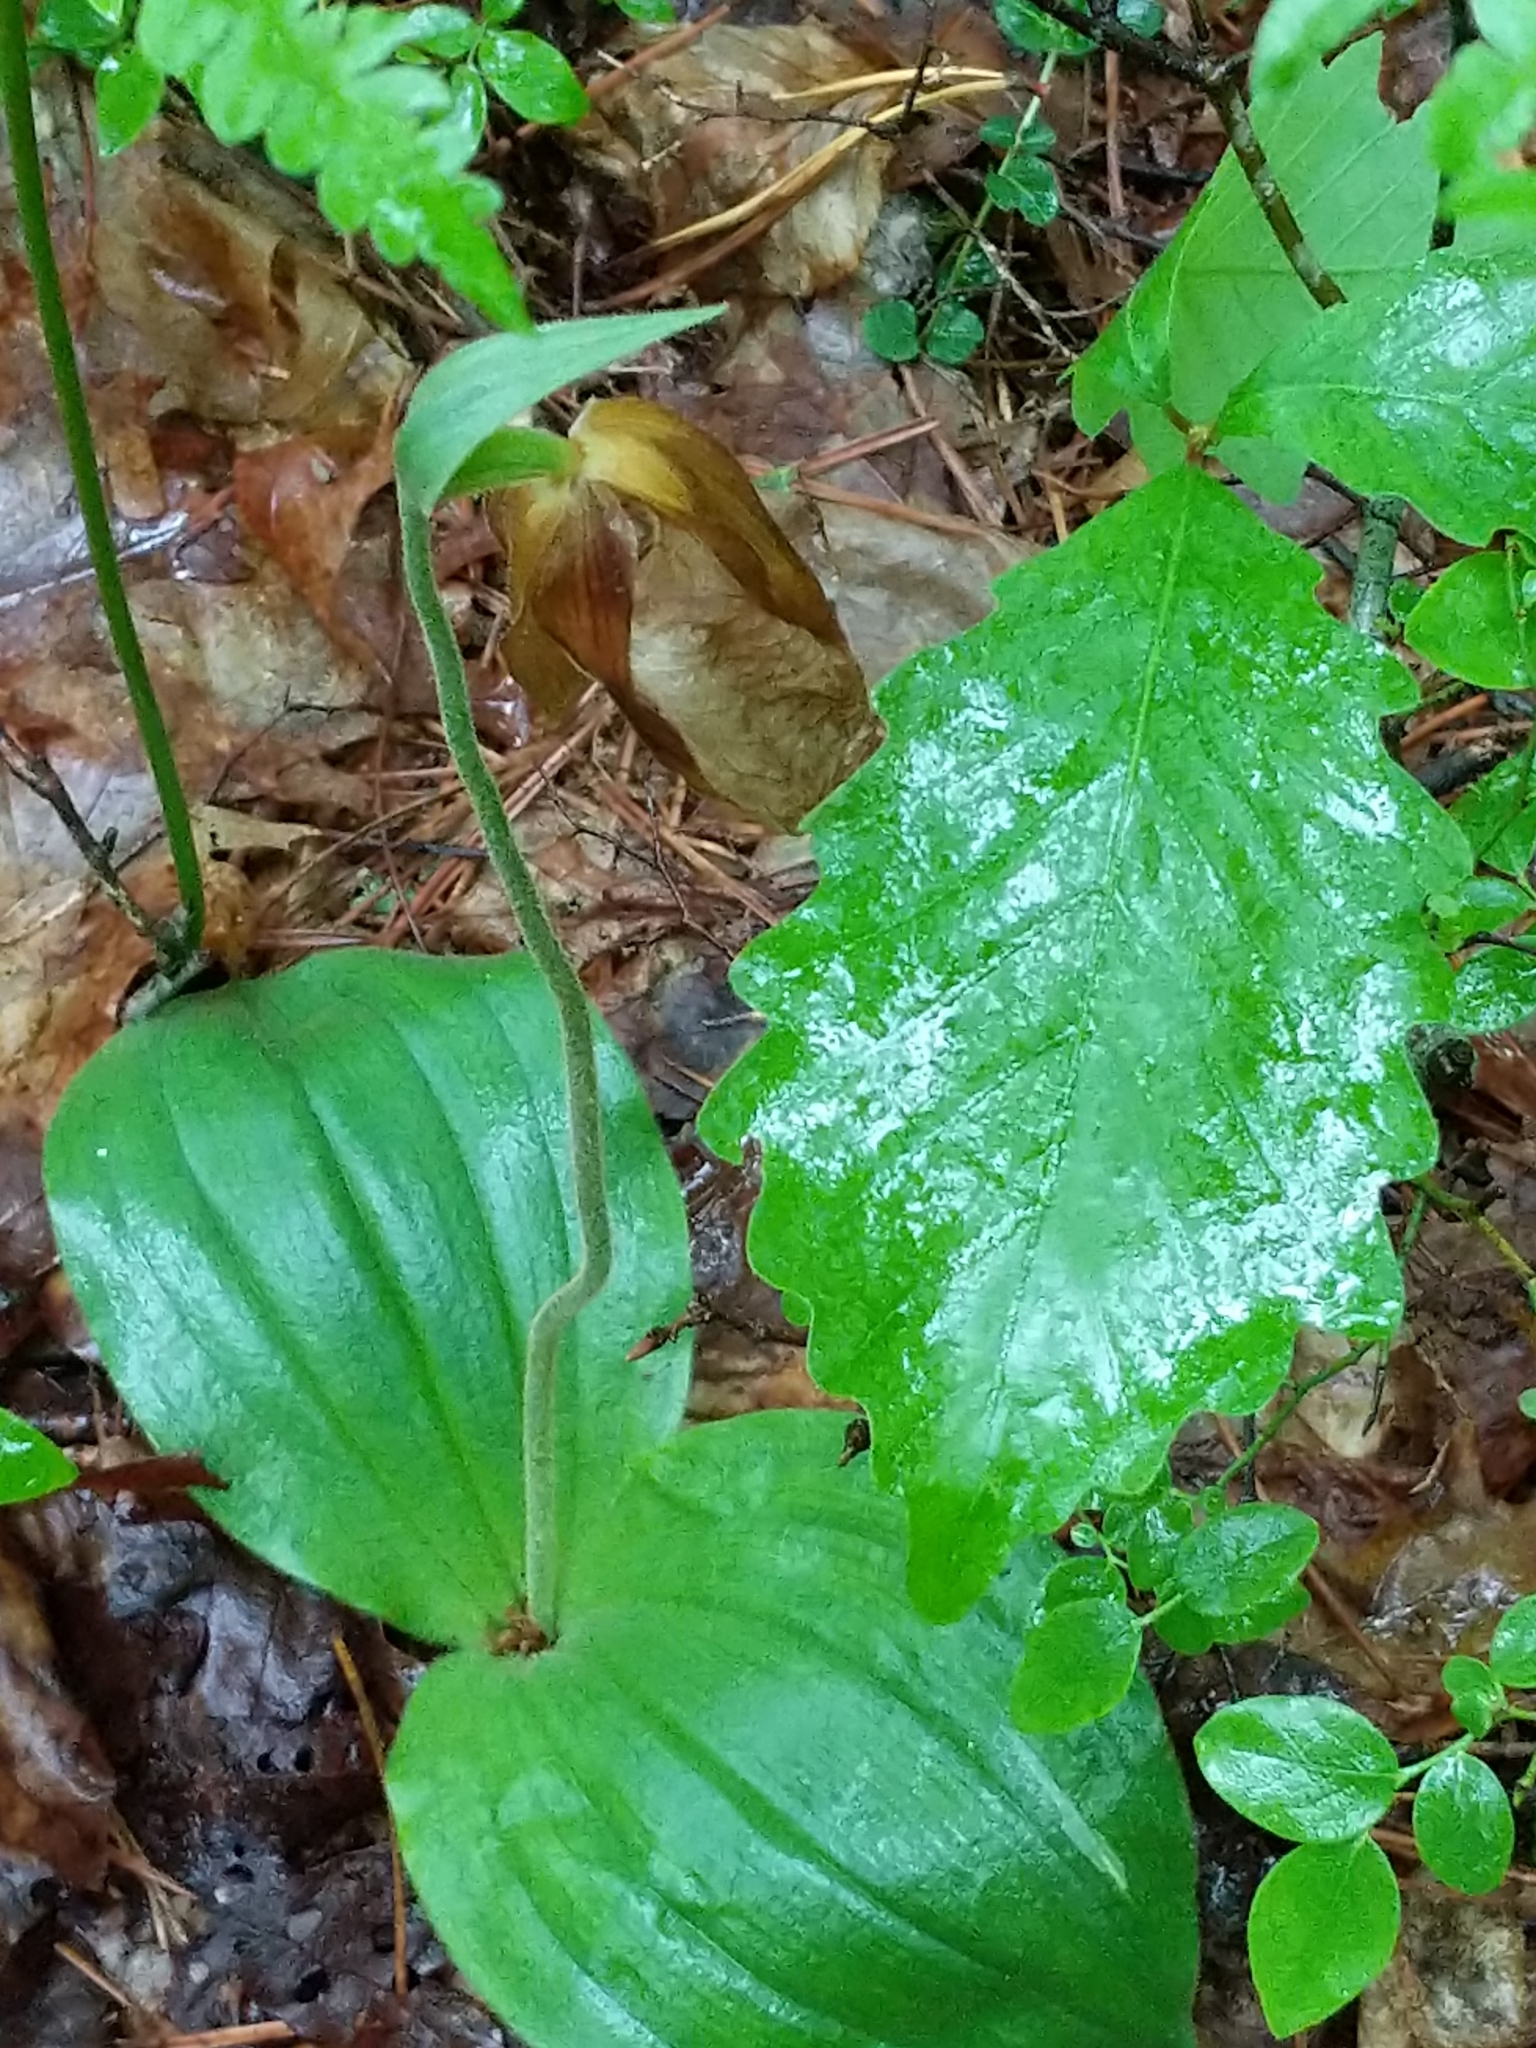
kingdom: Plantae
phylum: Tracheophyta
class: Liliopsida
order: Asparagales
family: Orchidaceae
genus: Cypripedium
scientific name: Cypripedium acaule
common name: Pink lady's-slipper
